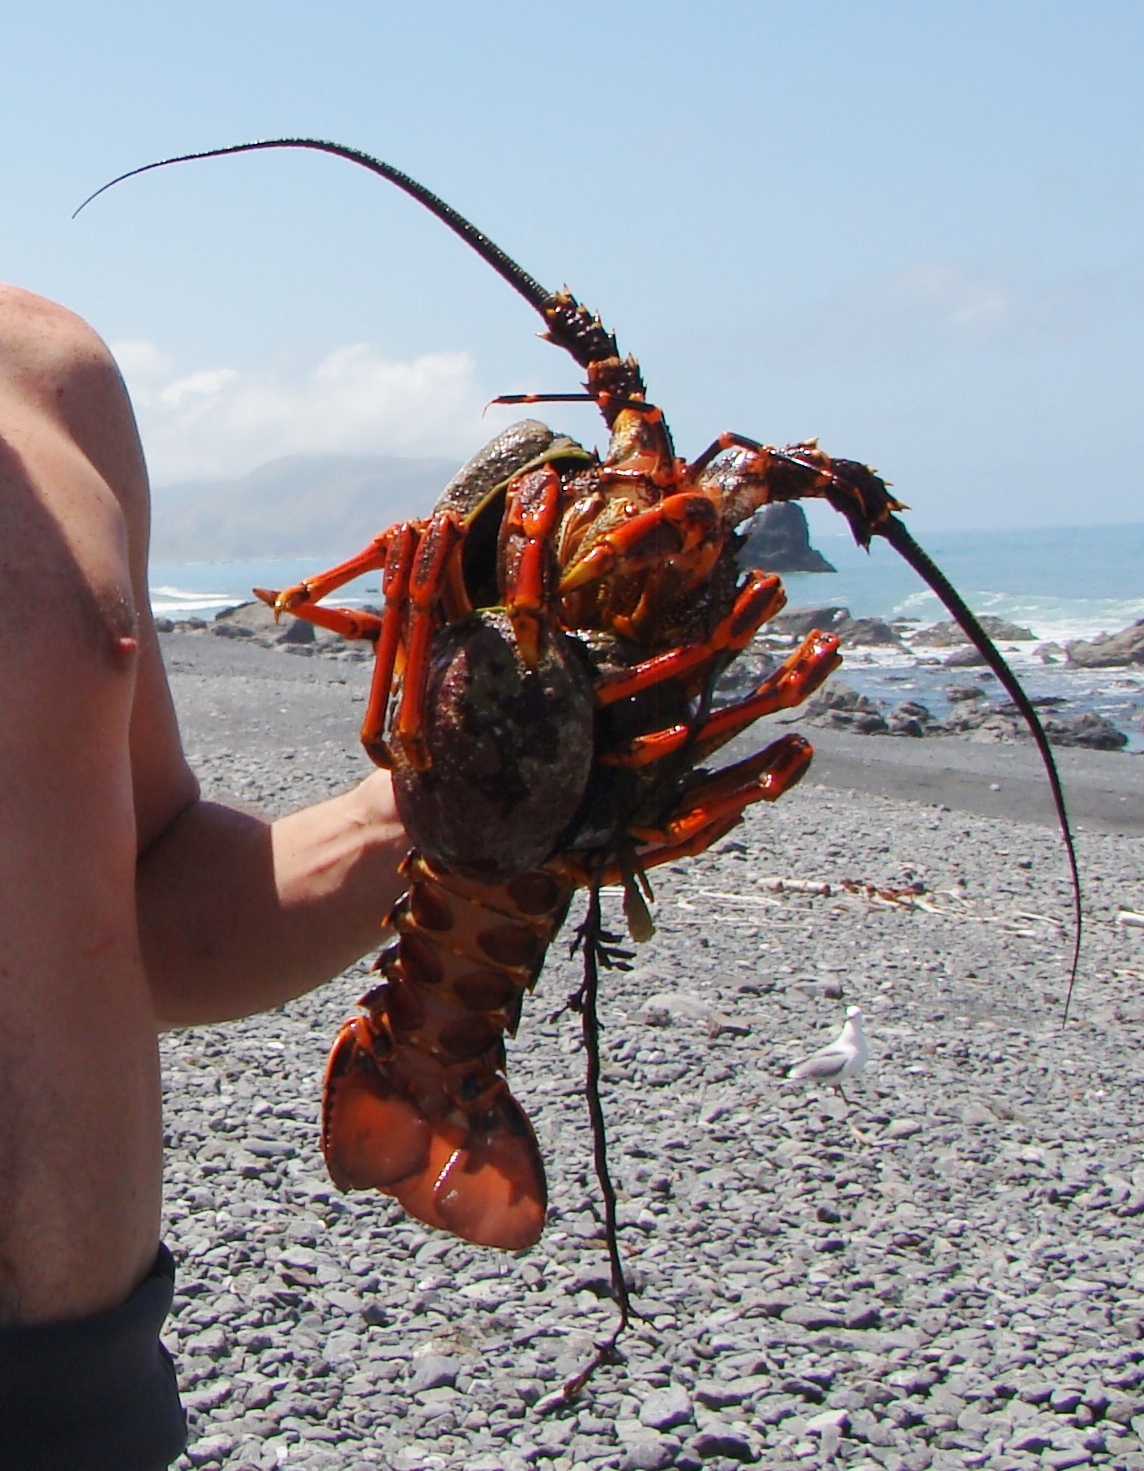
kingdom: Animalia
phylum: Arthropoda
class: Malacostraca
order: Decapoda
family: Palinuridae
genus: Jasus
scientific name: Jasus edwardsii
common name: Red rock lobster
